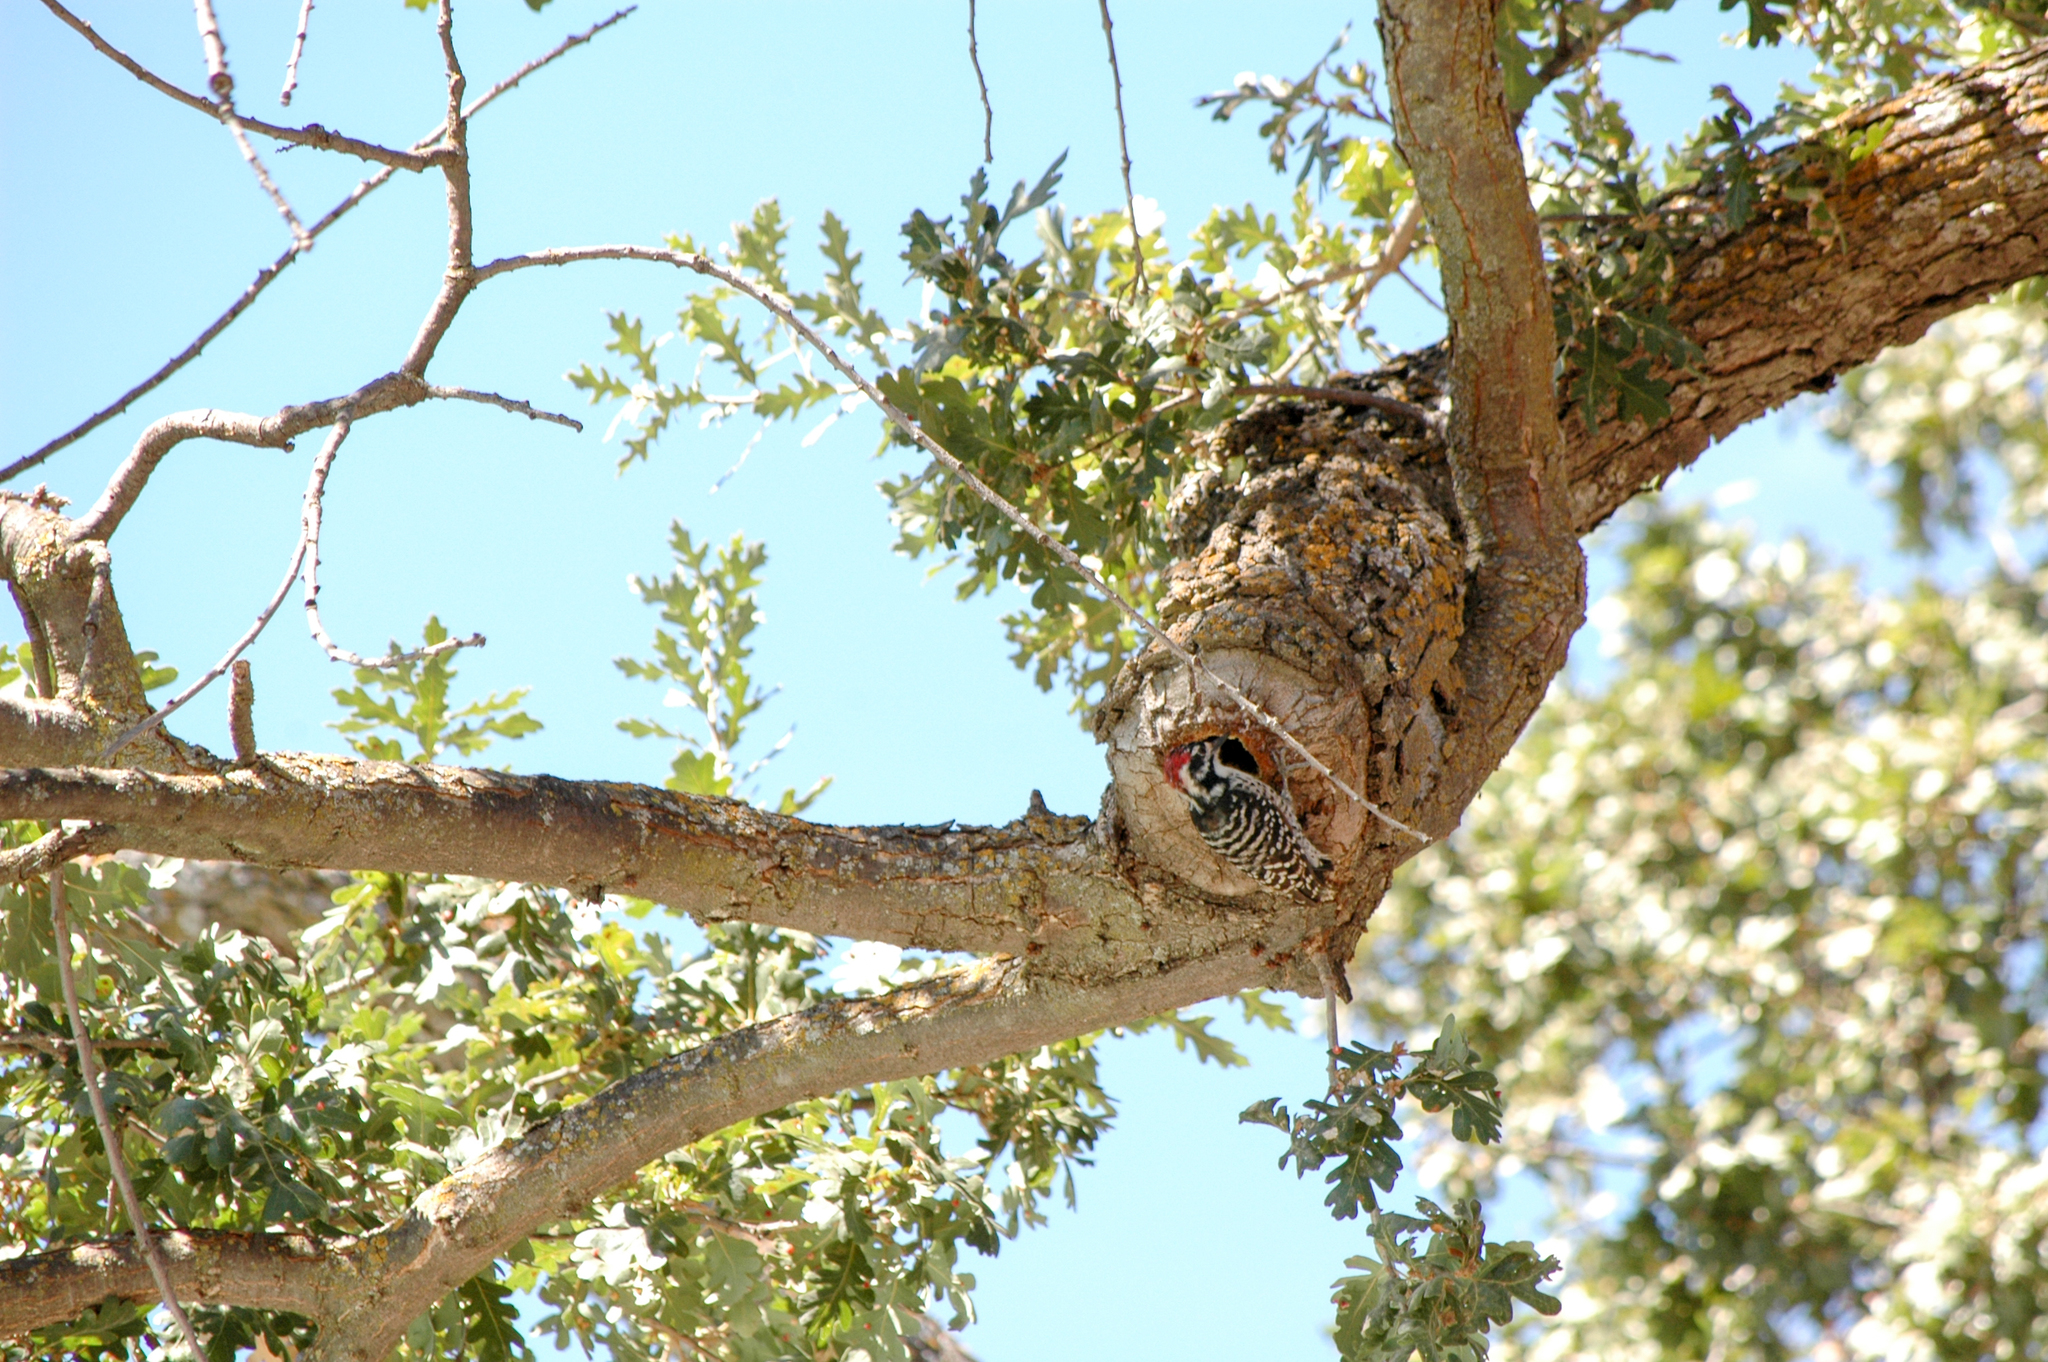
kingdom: Animalia
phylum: Chordata
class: Aves
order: Piciformes
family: Picidae
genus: Dryobates
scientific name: Dryobates nuttallii
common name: Nuttall's woodpecker
